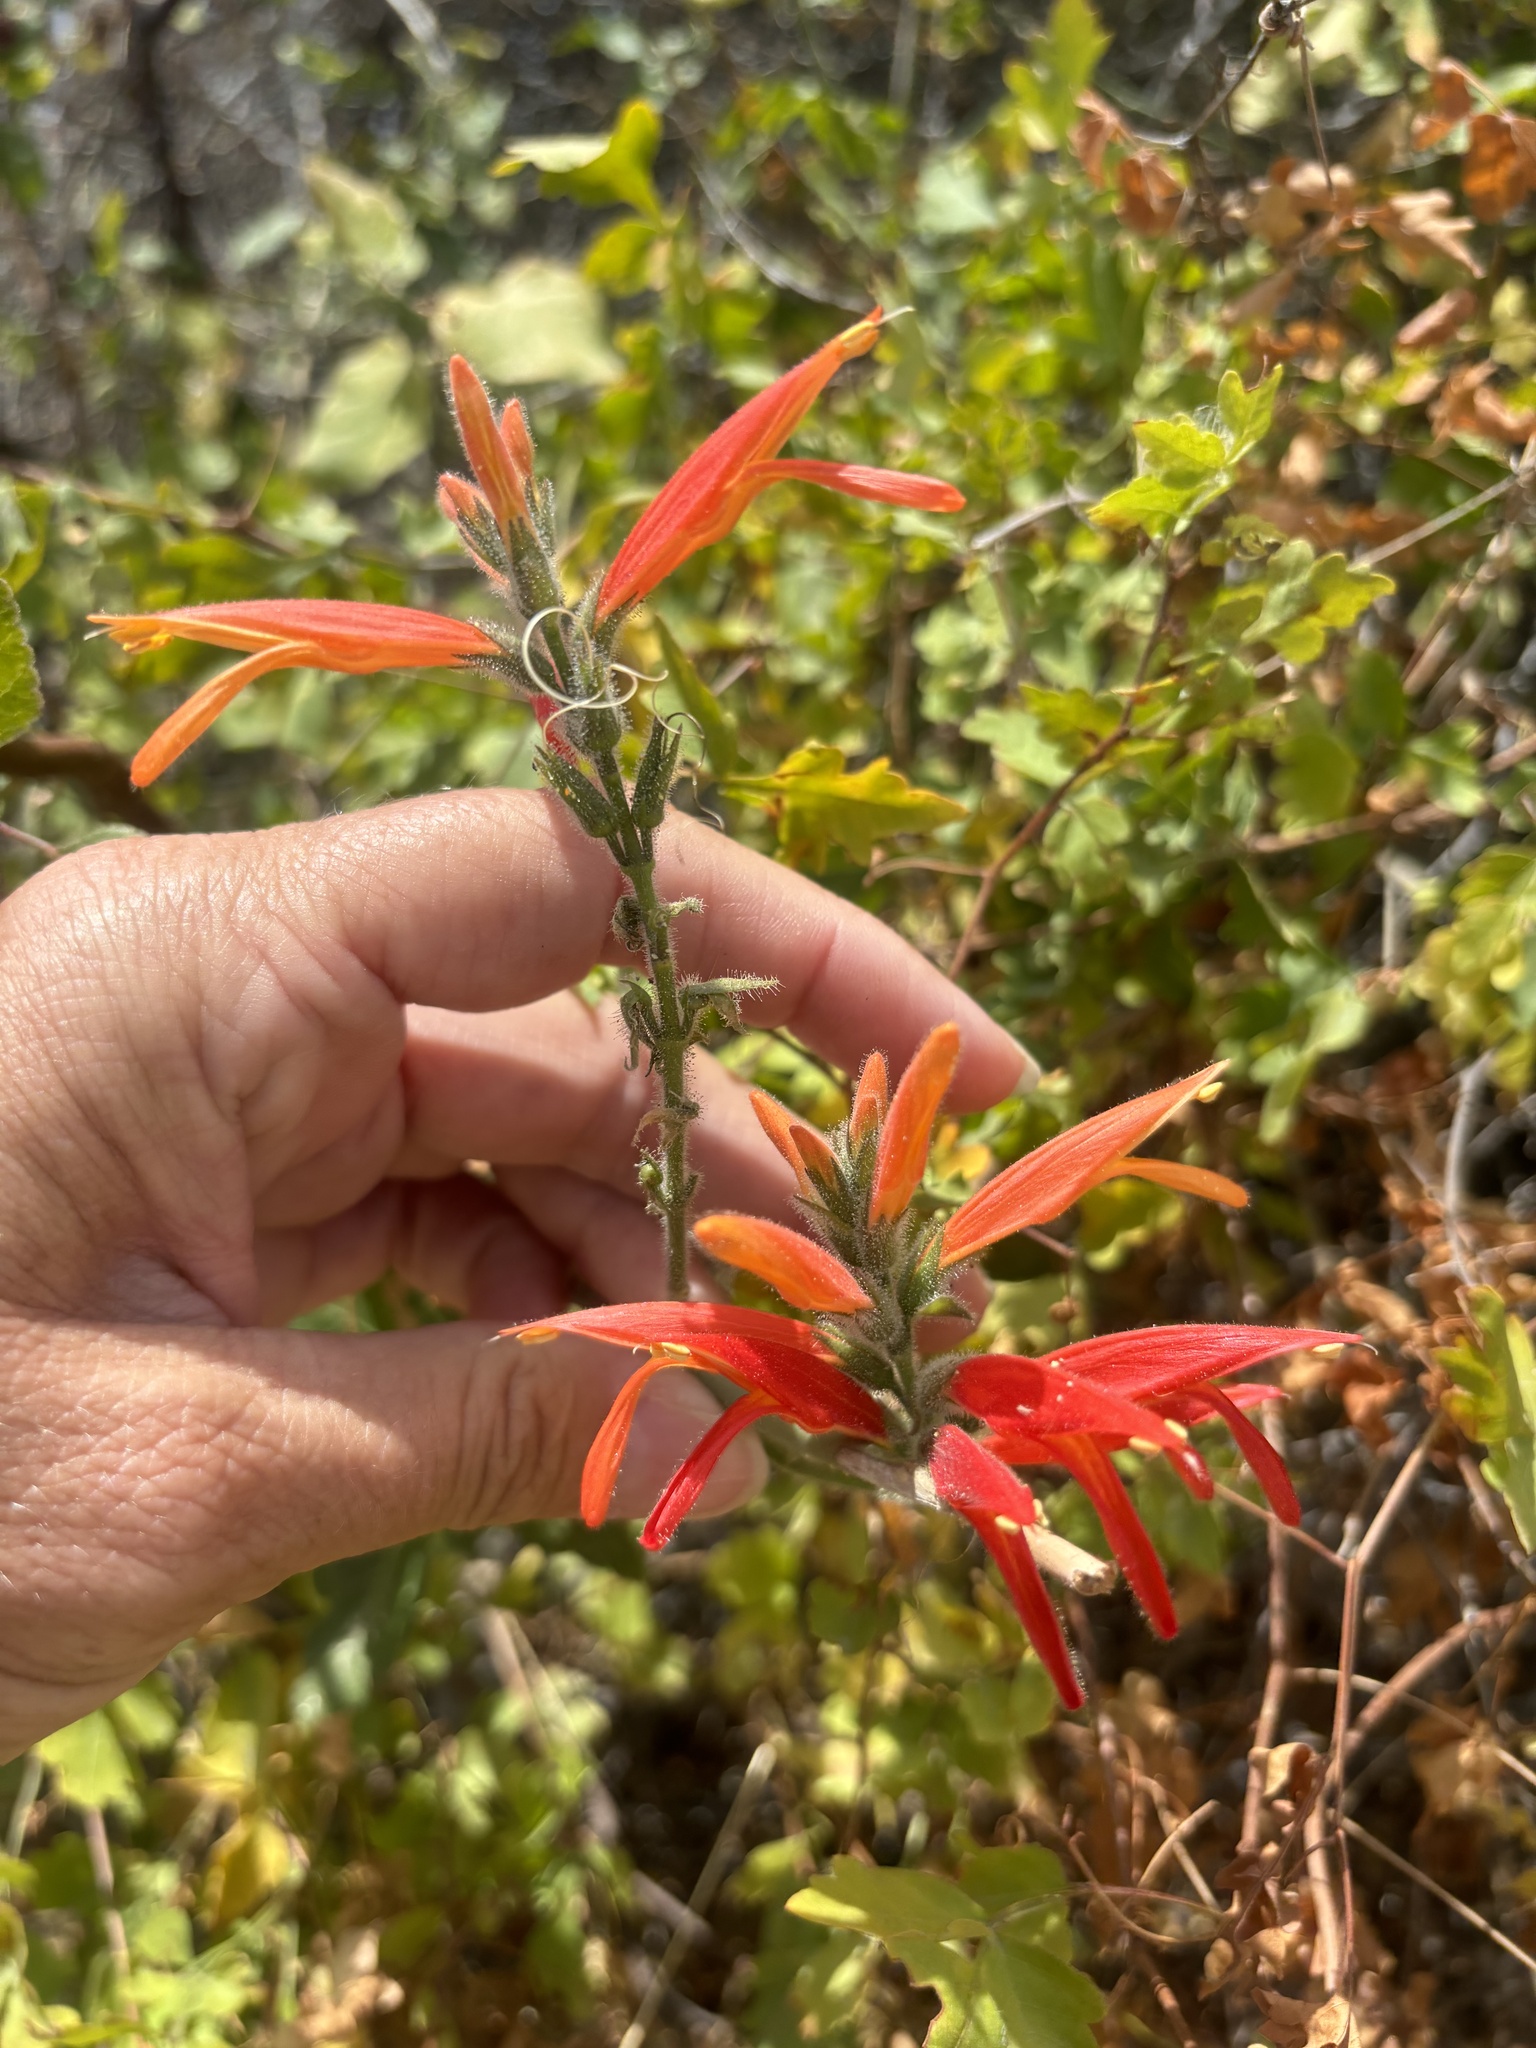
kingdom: Plantae
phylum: Tracheophyta
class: Magnoliopsida
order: Lamiales
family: Acanthaceae
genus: Justicia
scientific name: Justicia californica
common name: Chuparosa-honeysuckle
